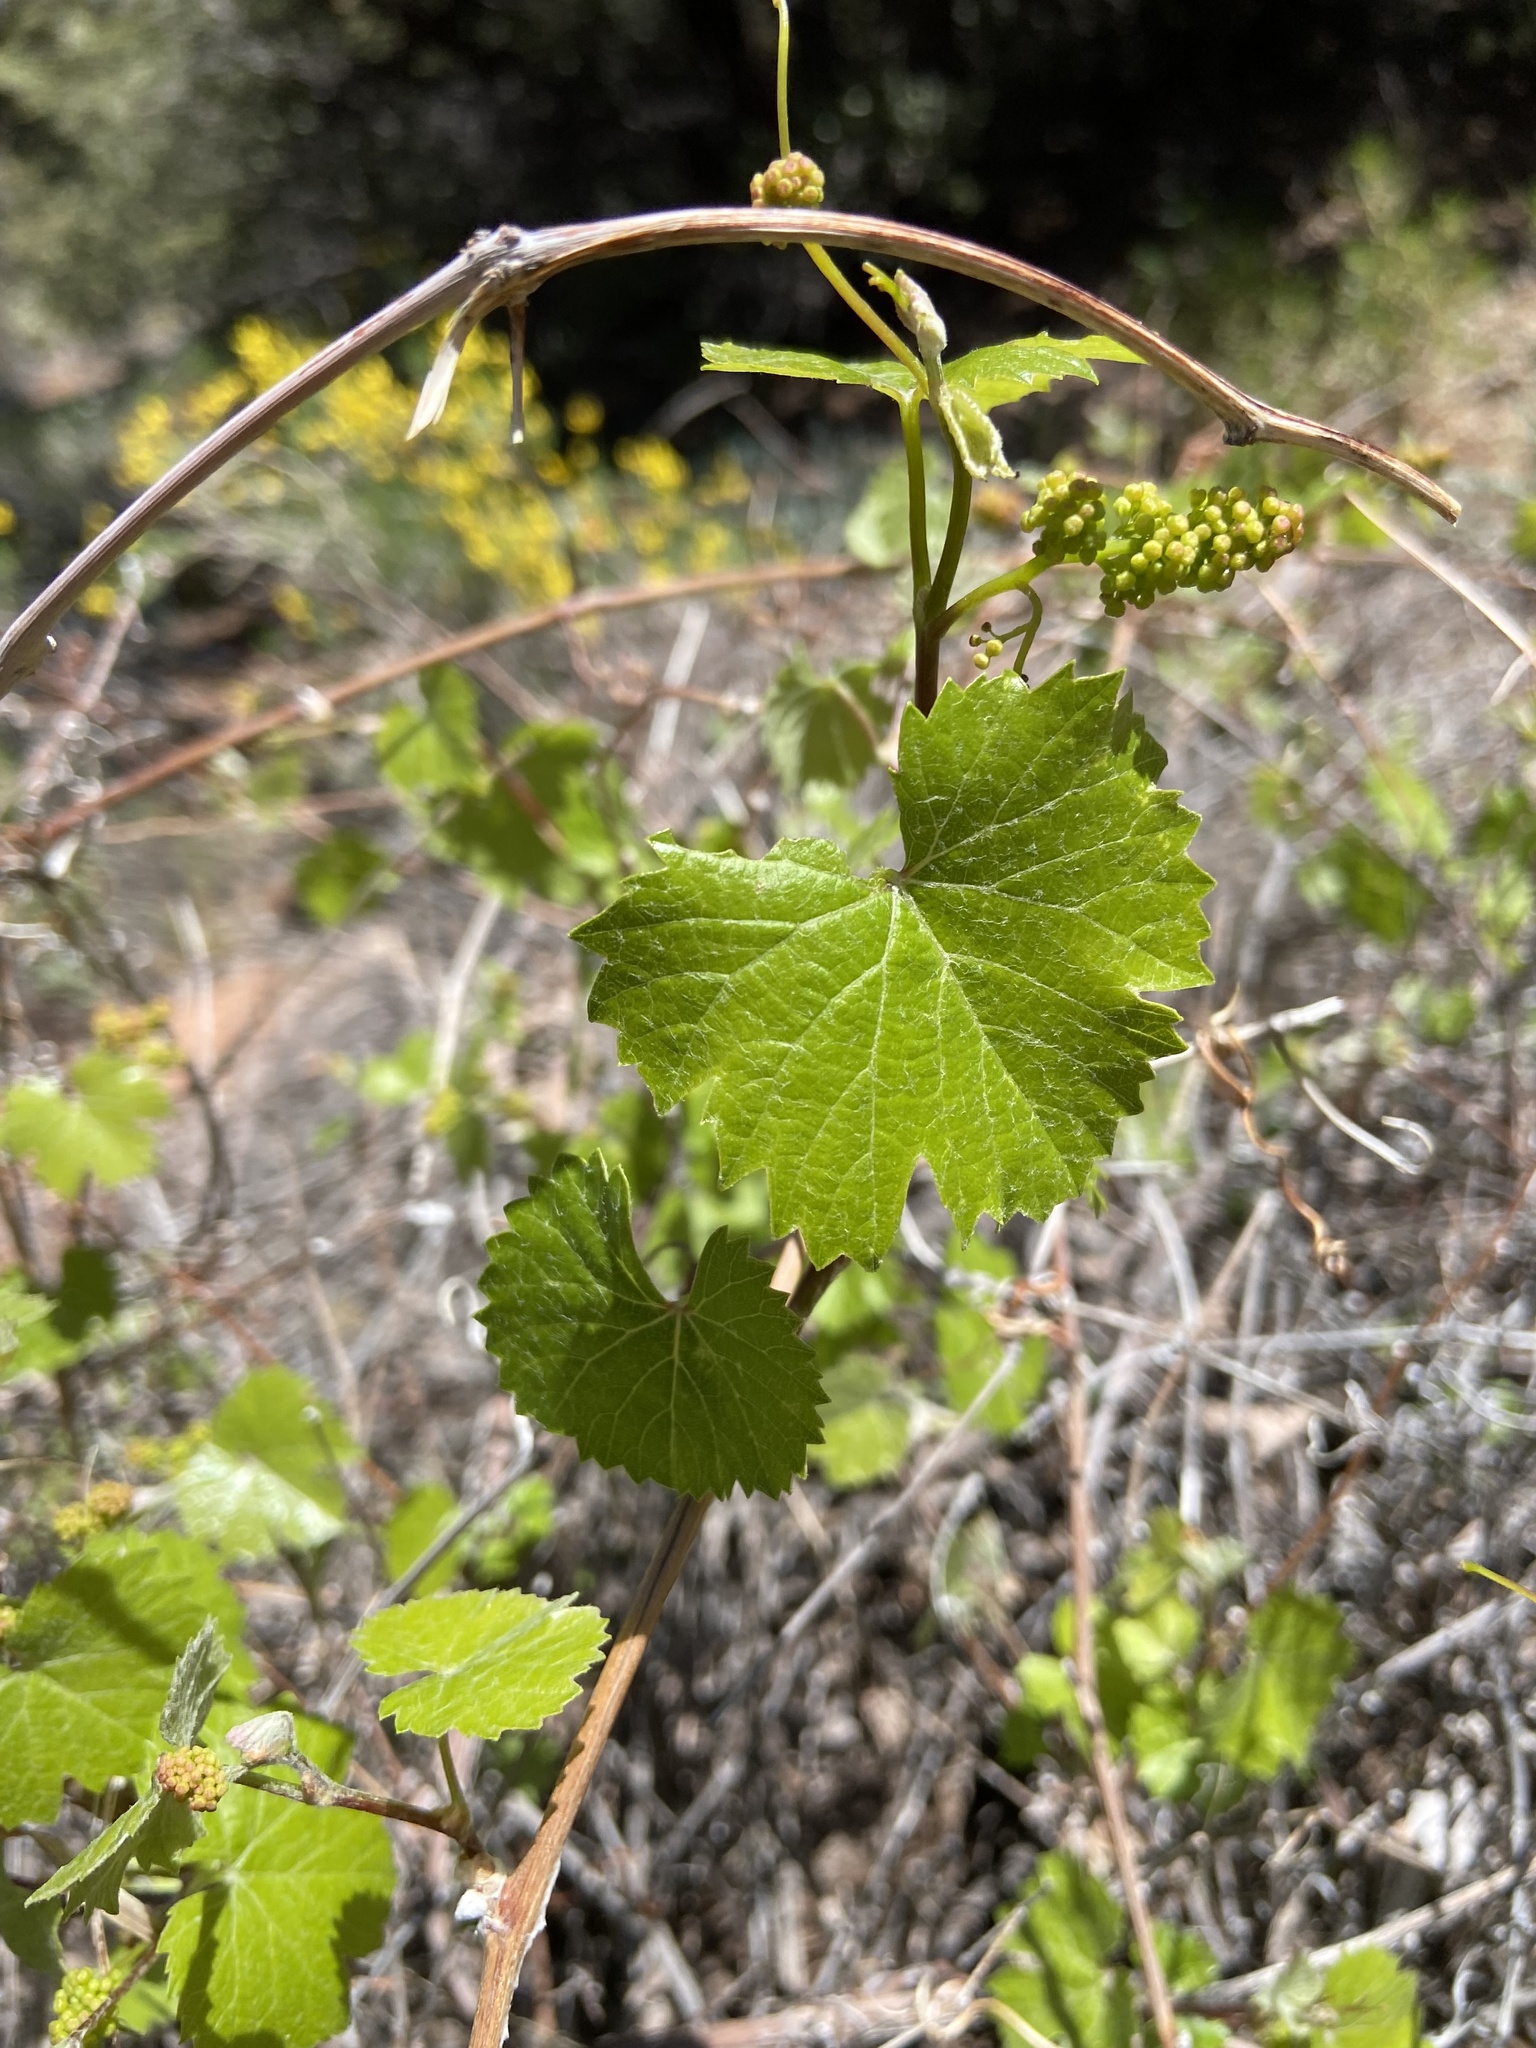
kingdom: Plantae
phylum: Tracheophyta
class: Magnoliopsida
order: Vitales
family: Vitaceae
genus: Vitis
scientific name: Vitis arizonica
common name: Canyon grape
